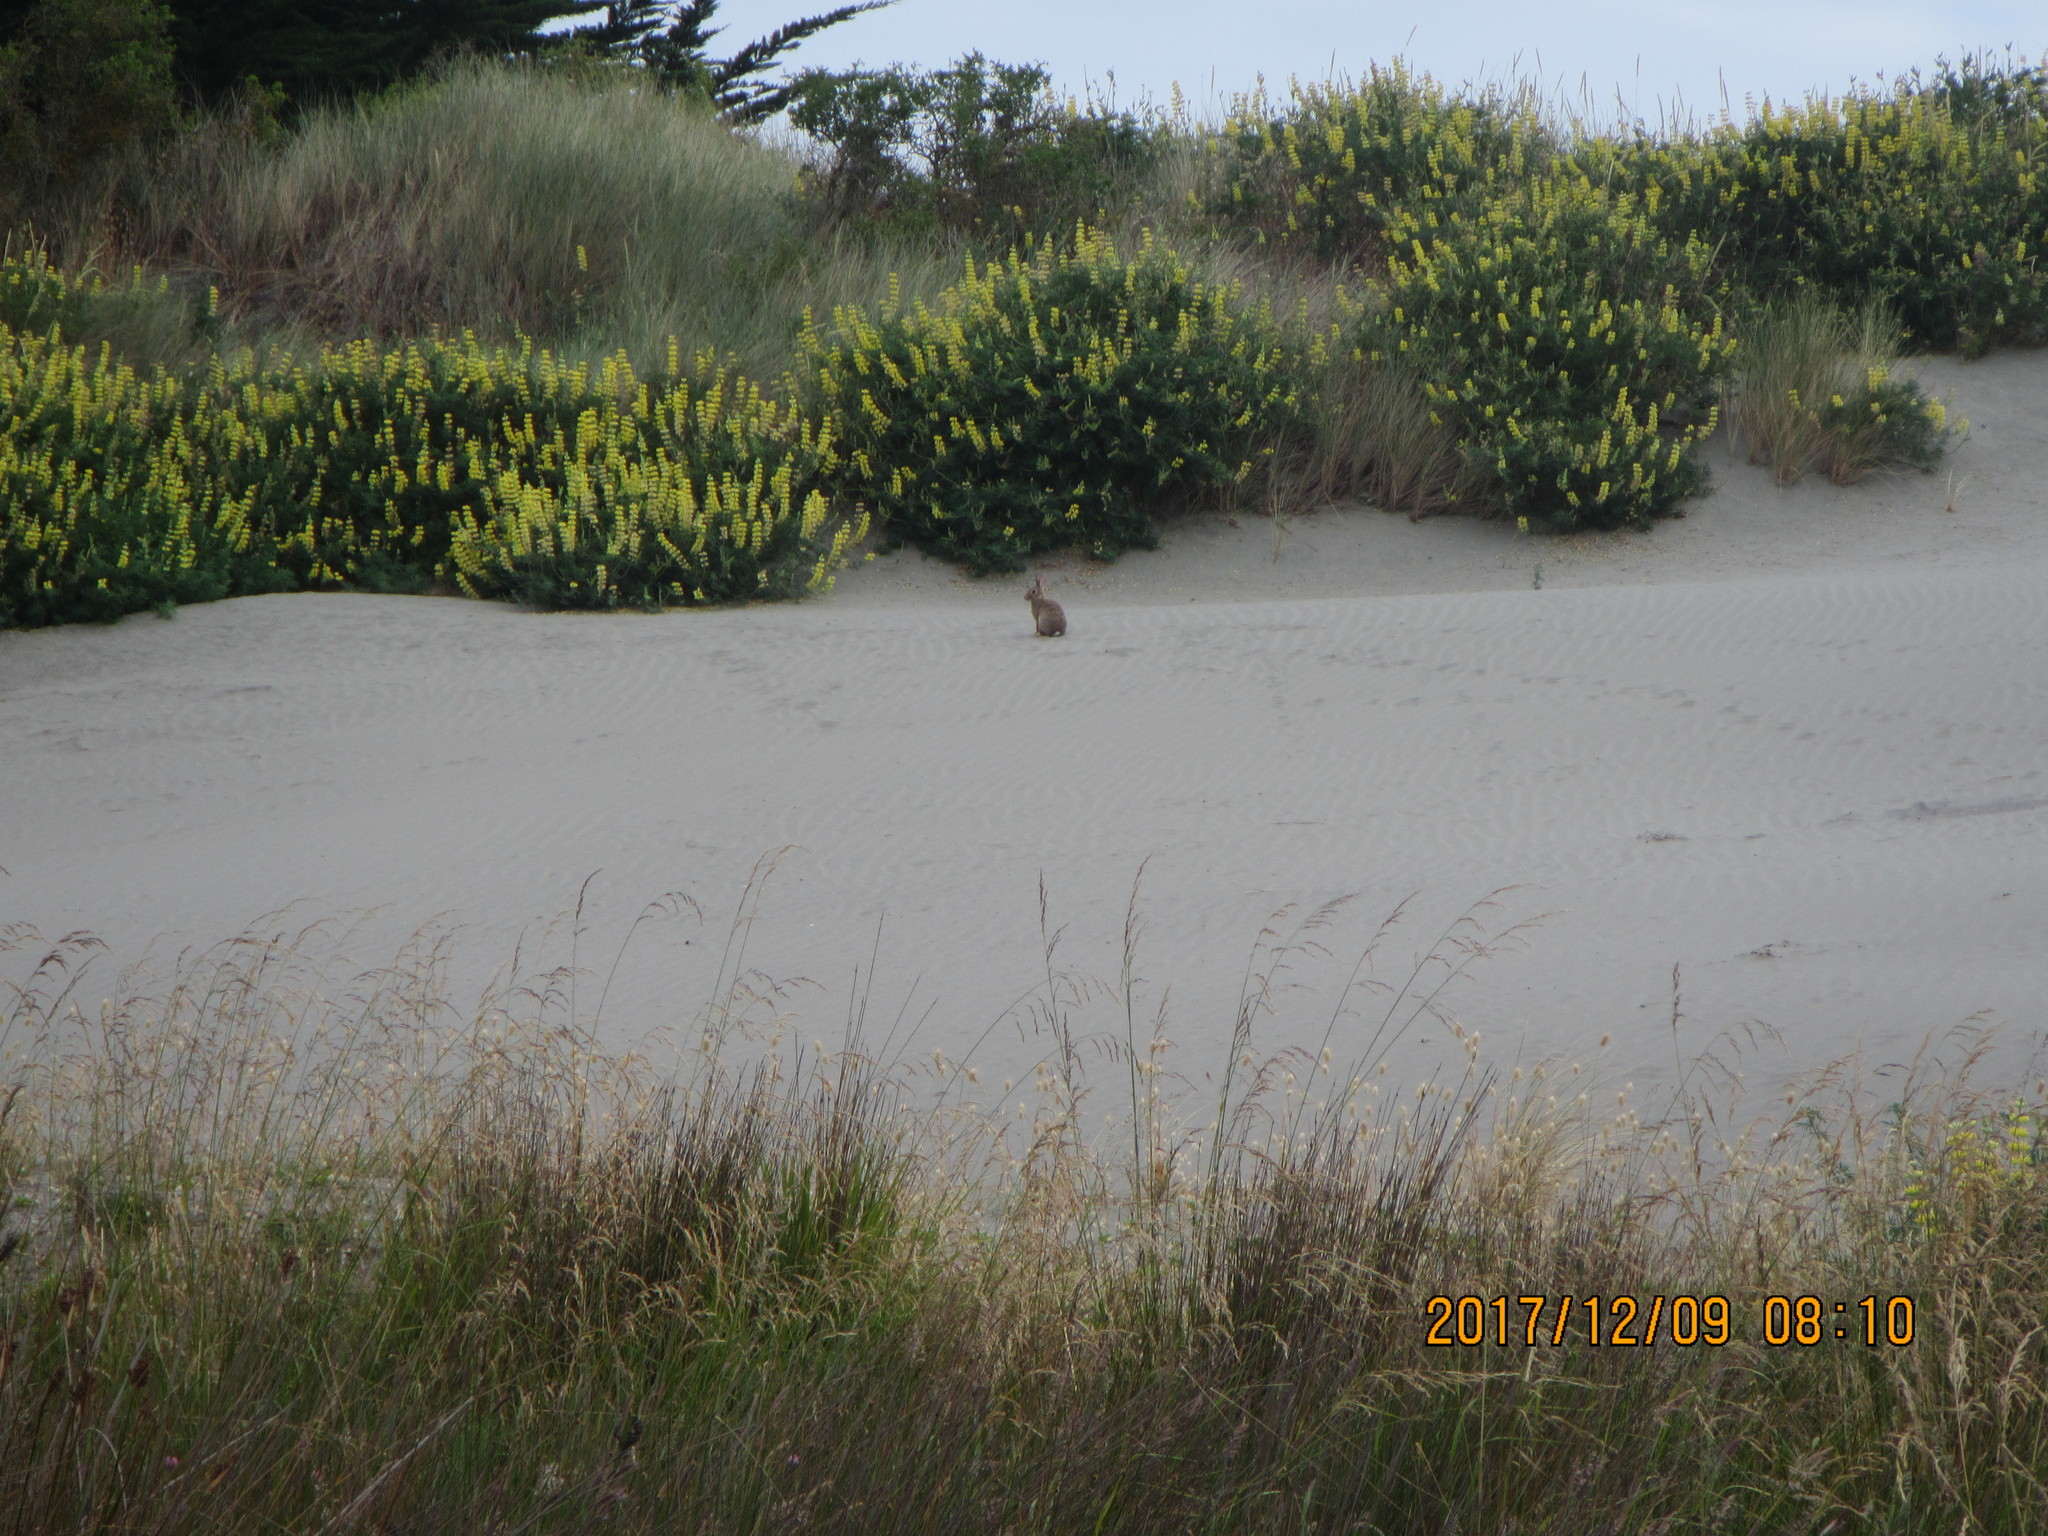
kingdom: Animalia
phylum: Chordata
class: Mammalia
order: Lagomorpha
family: Leporidae
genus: Oryctolagus
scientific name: Oryctolagus cuniculus
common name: European rabbit
